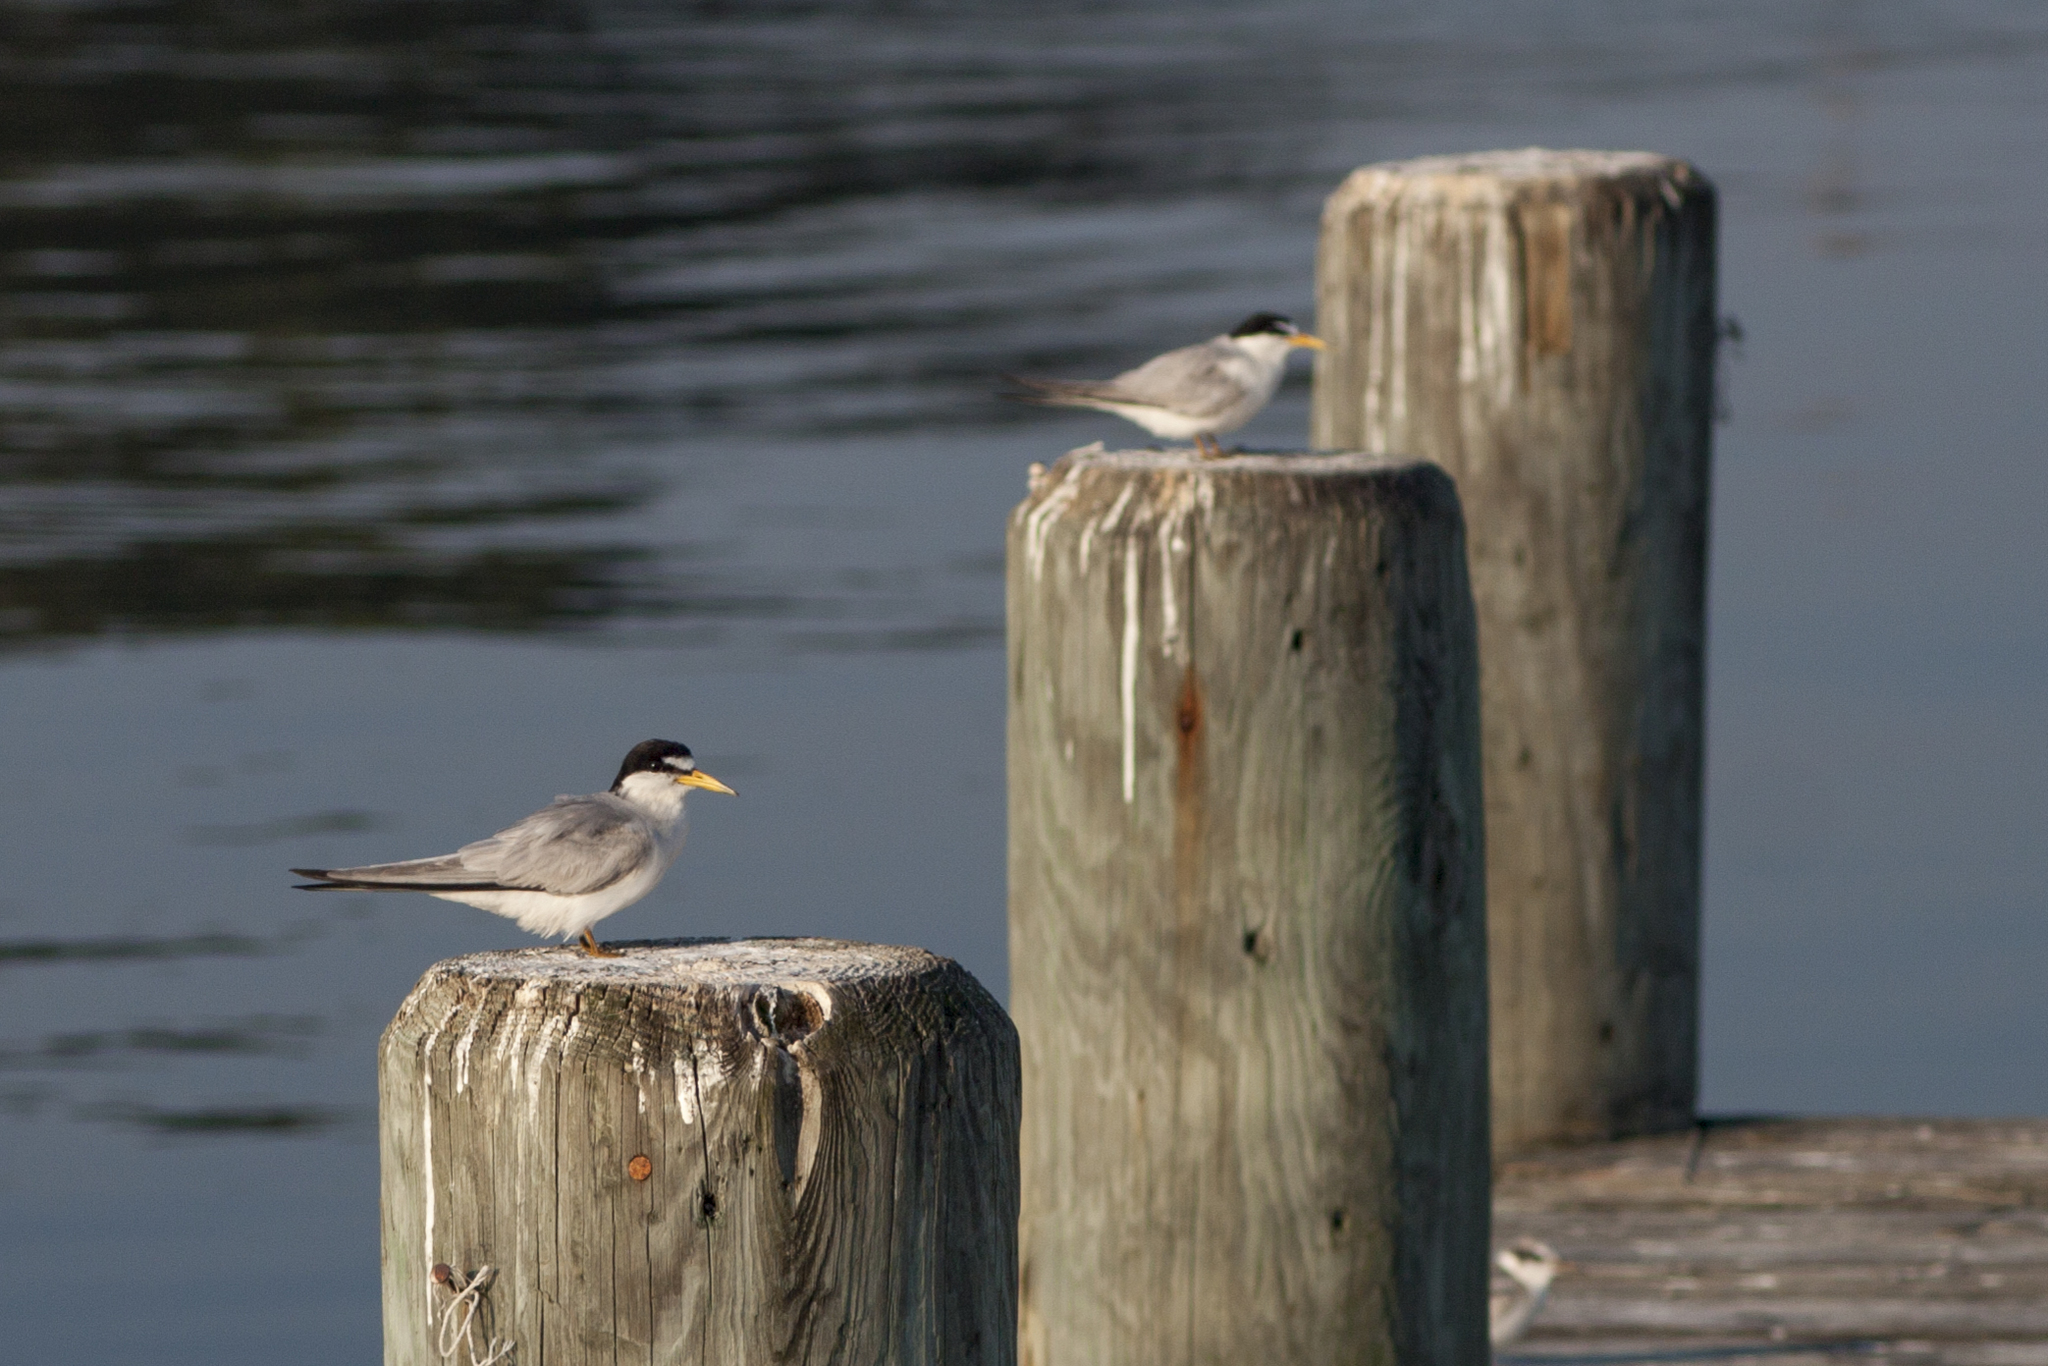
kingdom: Animalia
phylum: Chordata
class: Aves
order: Charadriiformes
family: Laridae
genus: Sternula
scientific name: Sternula antillarum
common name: Least tern
